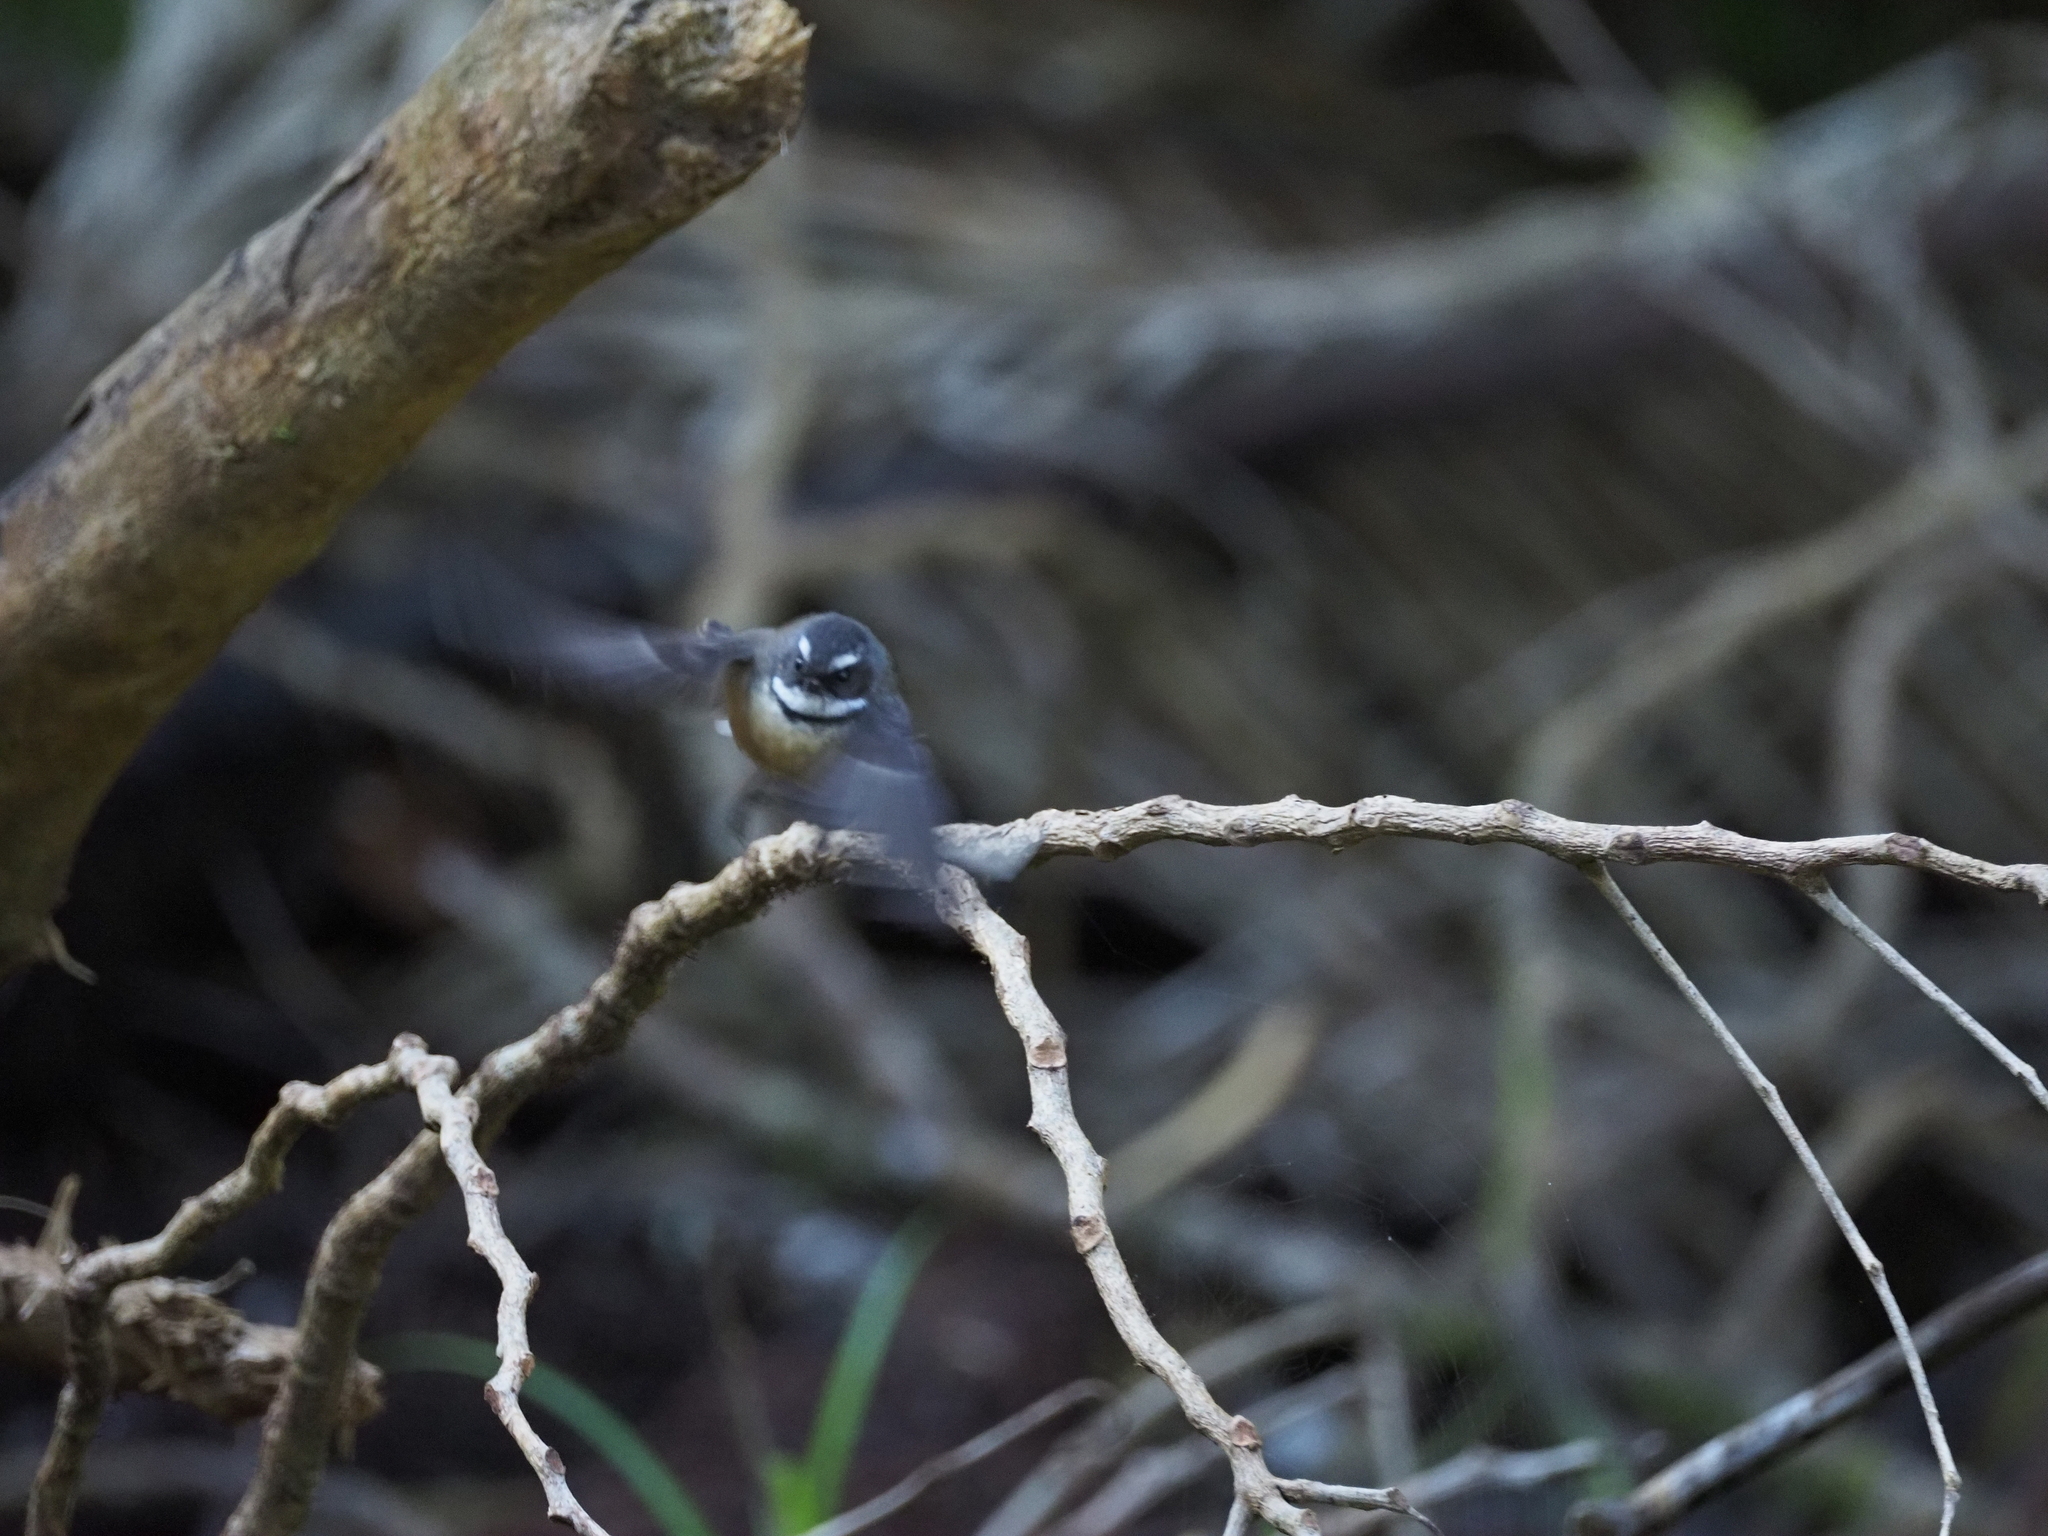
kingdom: Animalia
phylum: Chordata
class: Aves
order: Passeriformes
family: Rhipiduridae
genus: Rhipidura
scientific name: Rhipidura fuliginosa
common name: New zealand fantail
